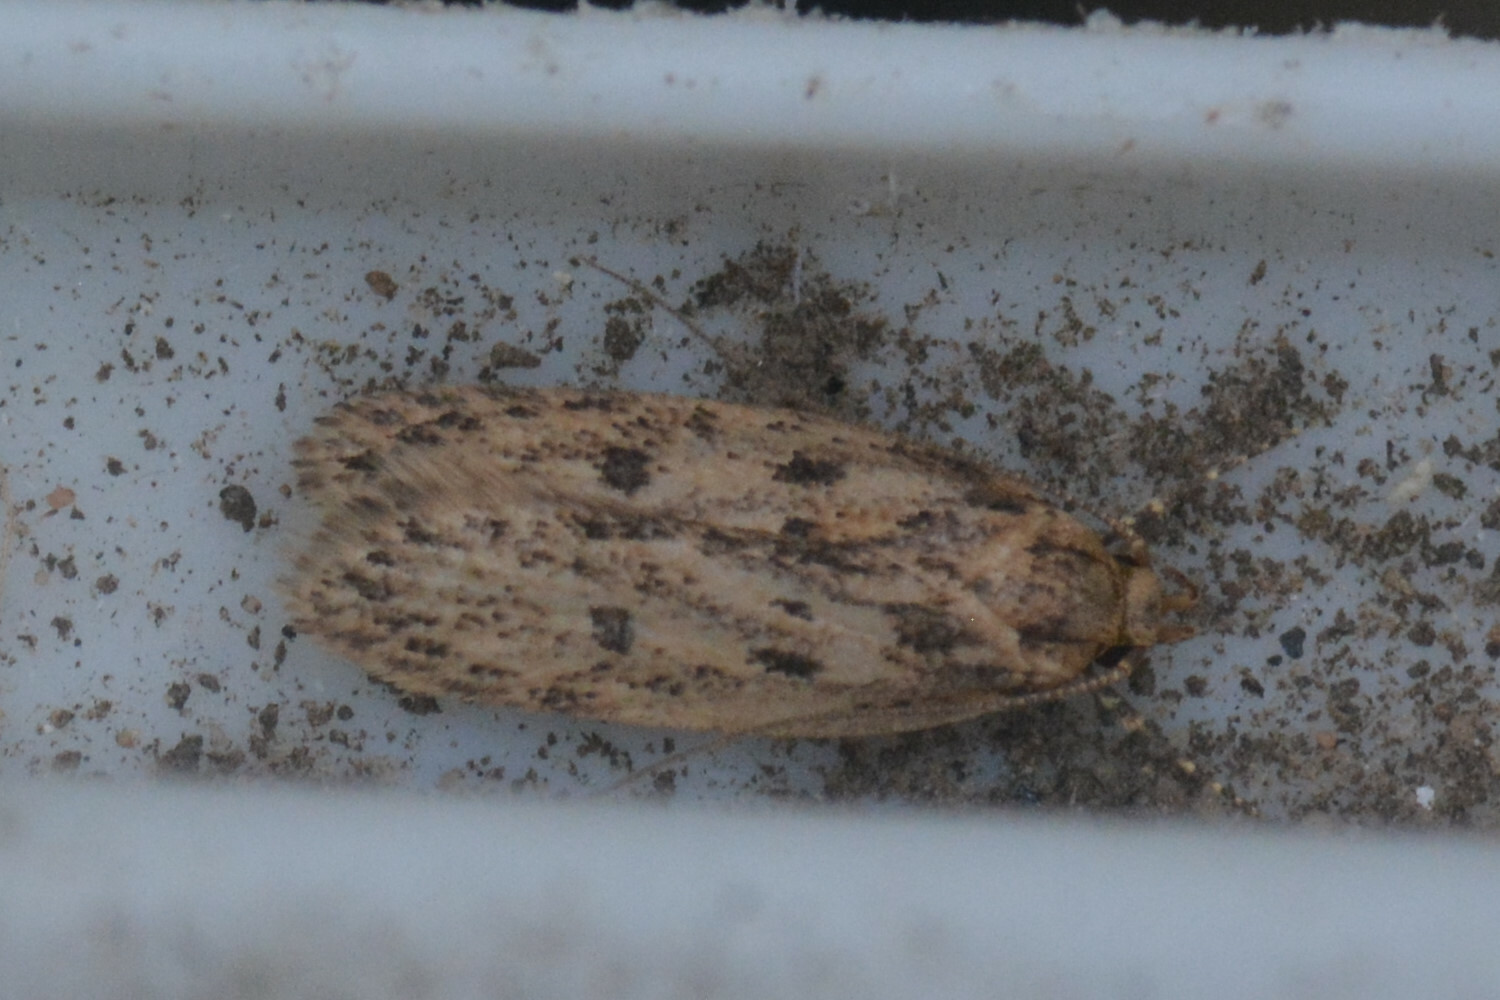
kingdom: Animalia
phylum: Arthropoda
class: Insecta
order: Lepidoptera
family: Oecophoridae
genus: Hofmannophila
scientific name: Hofmannophila pseudospretella
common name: Brown house moth
